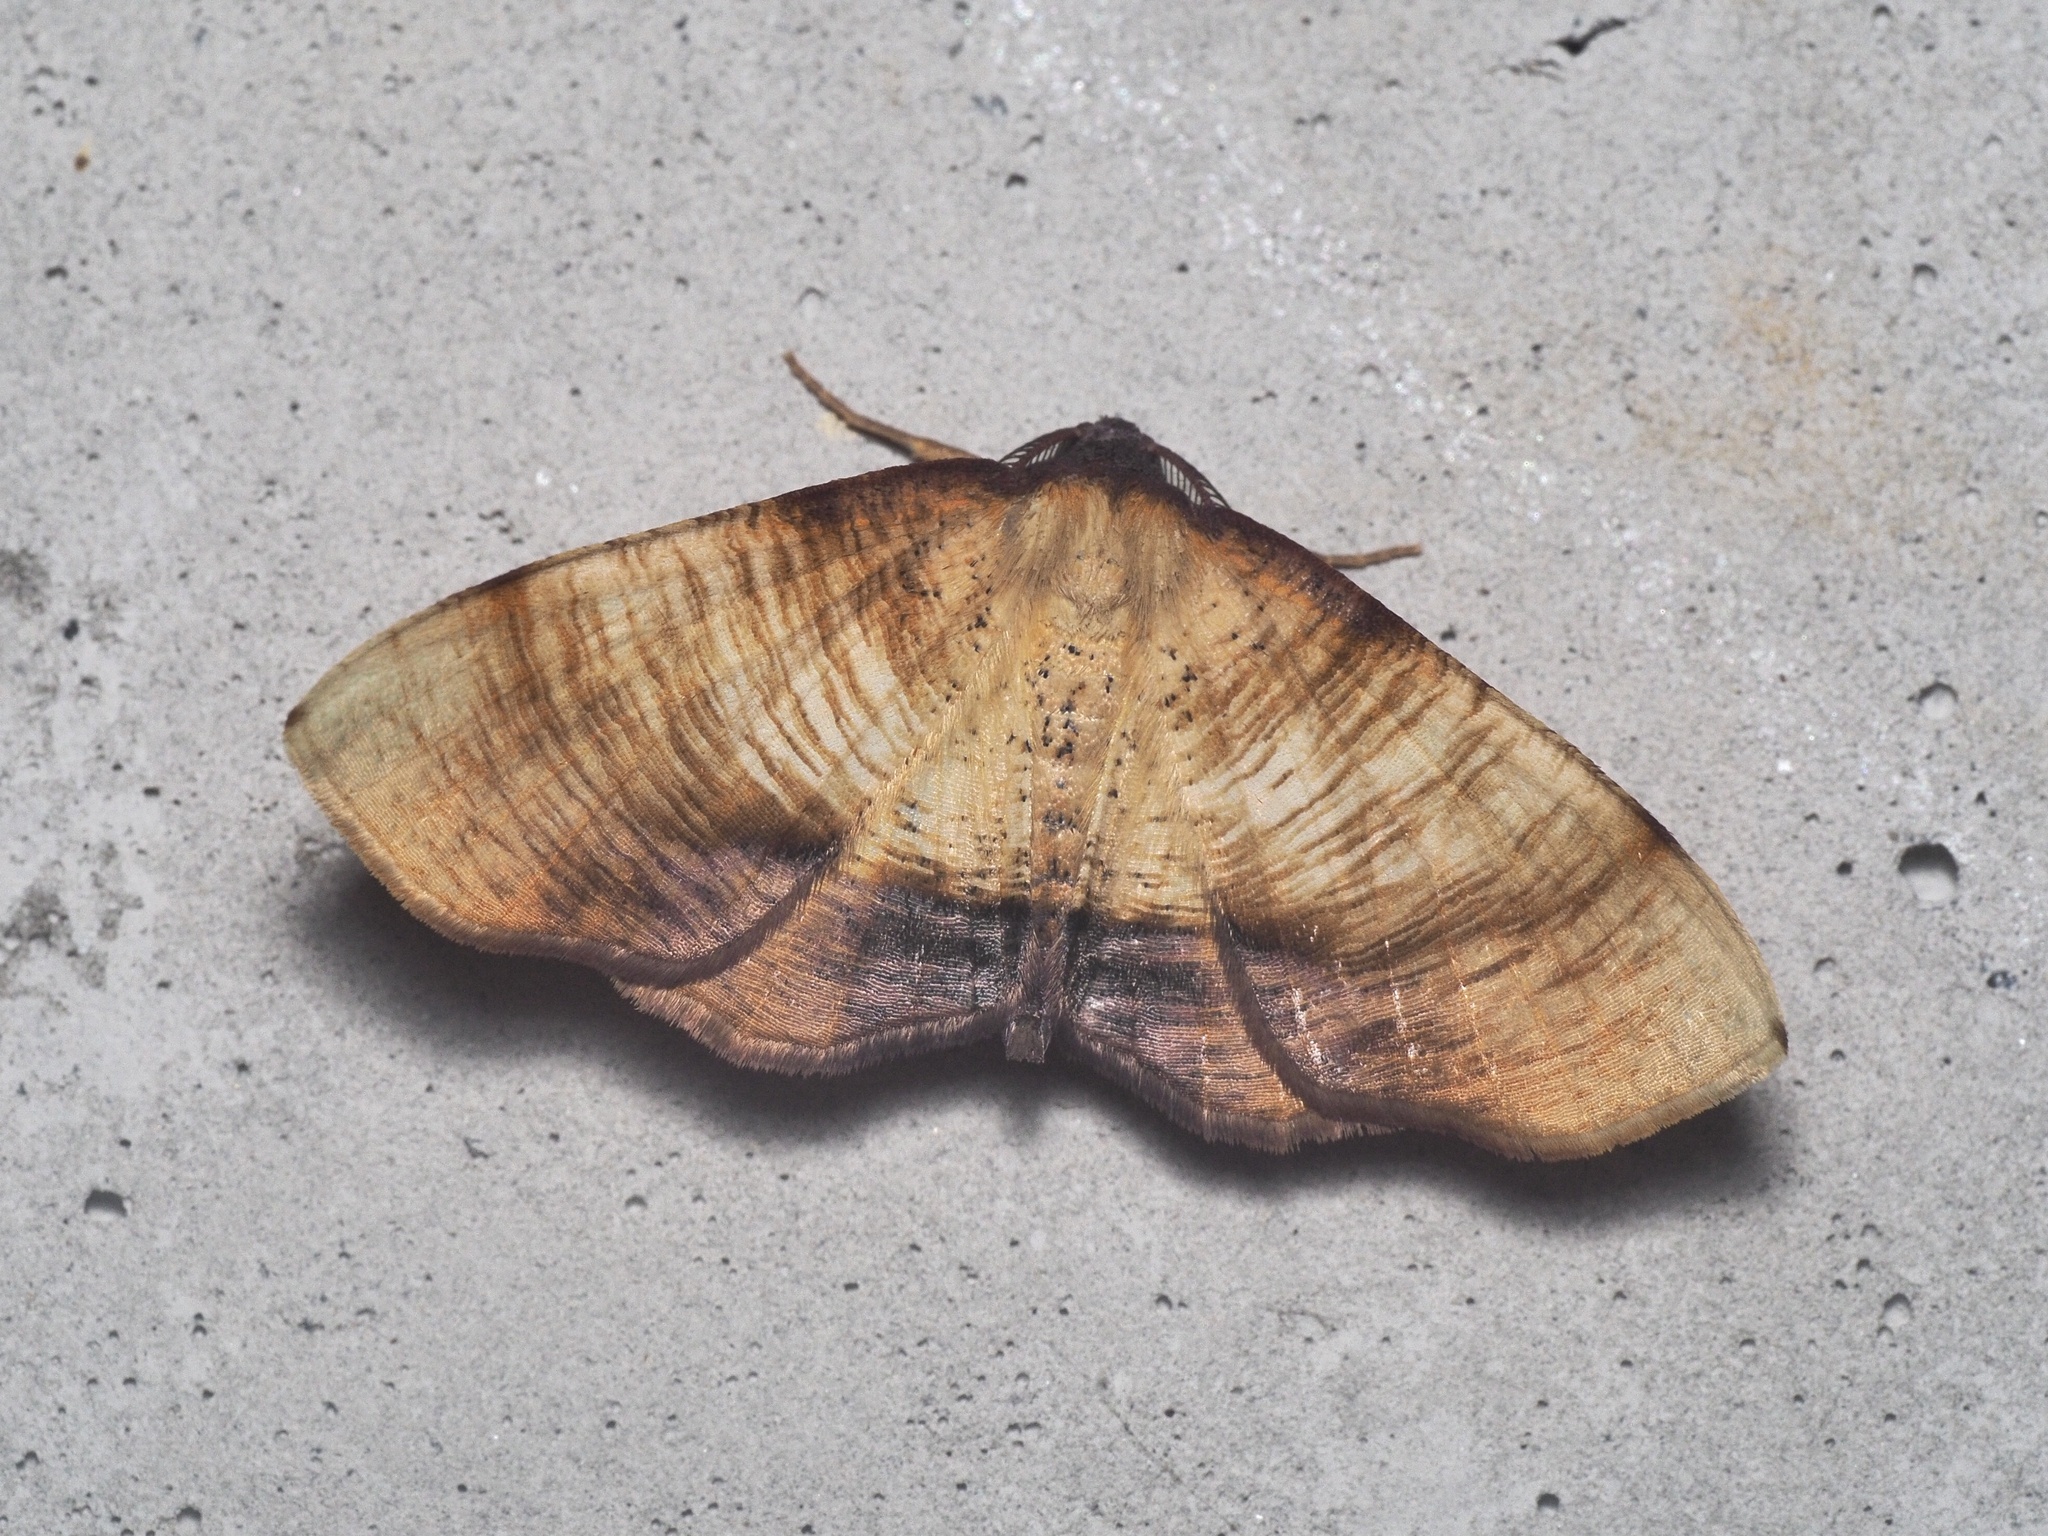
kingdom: Animalia
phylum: Arthropoda
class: Insecta
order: Lepidoptera
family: Geometridae
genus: Plagodis
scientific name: Plagodis dolabraria
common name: Scorched wing
